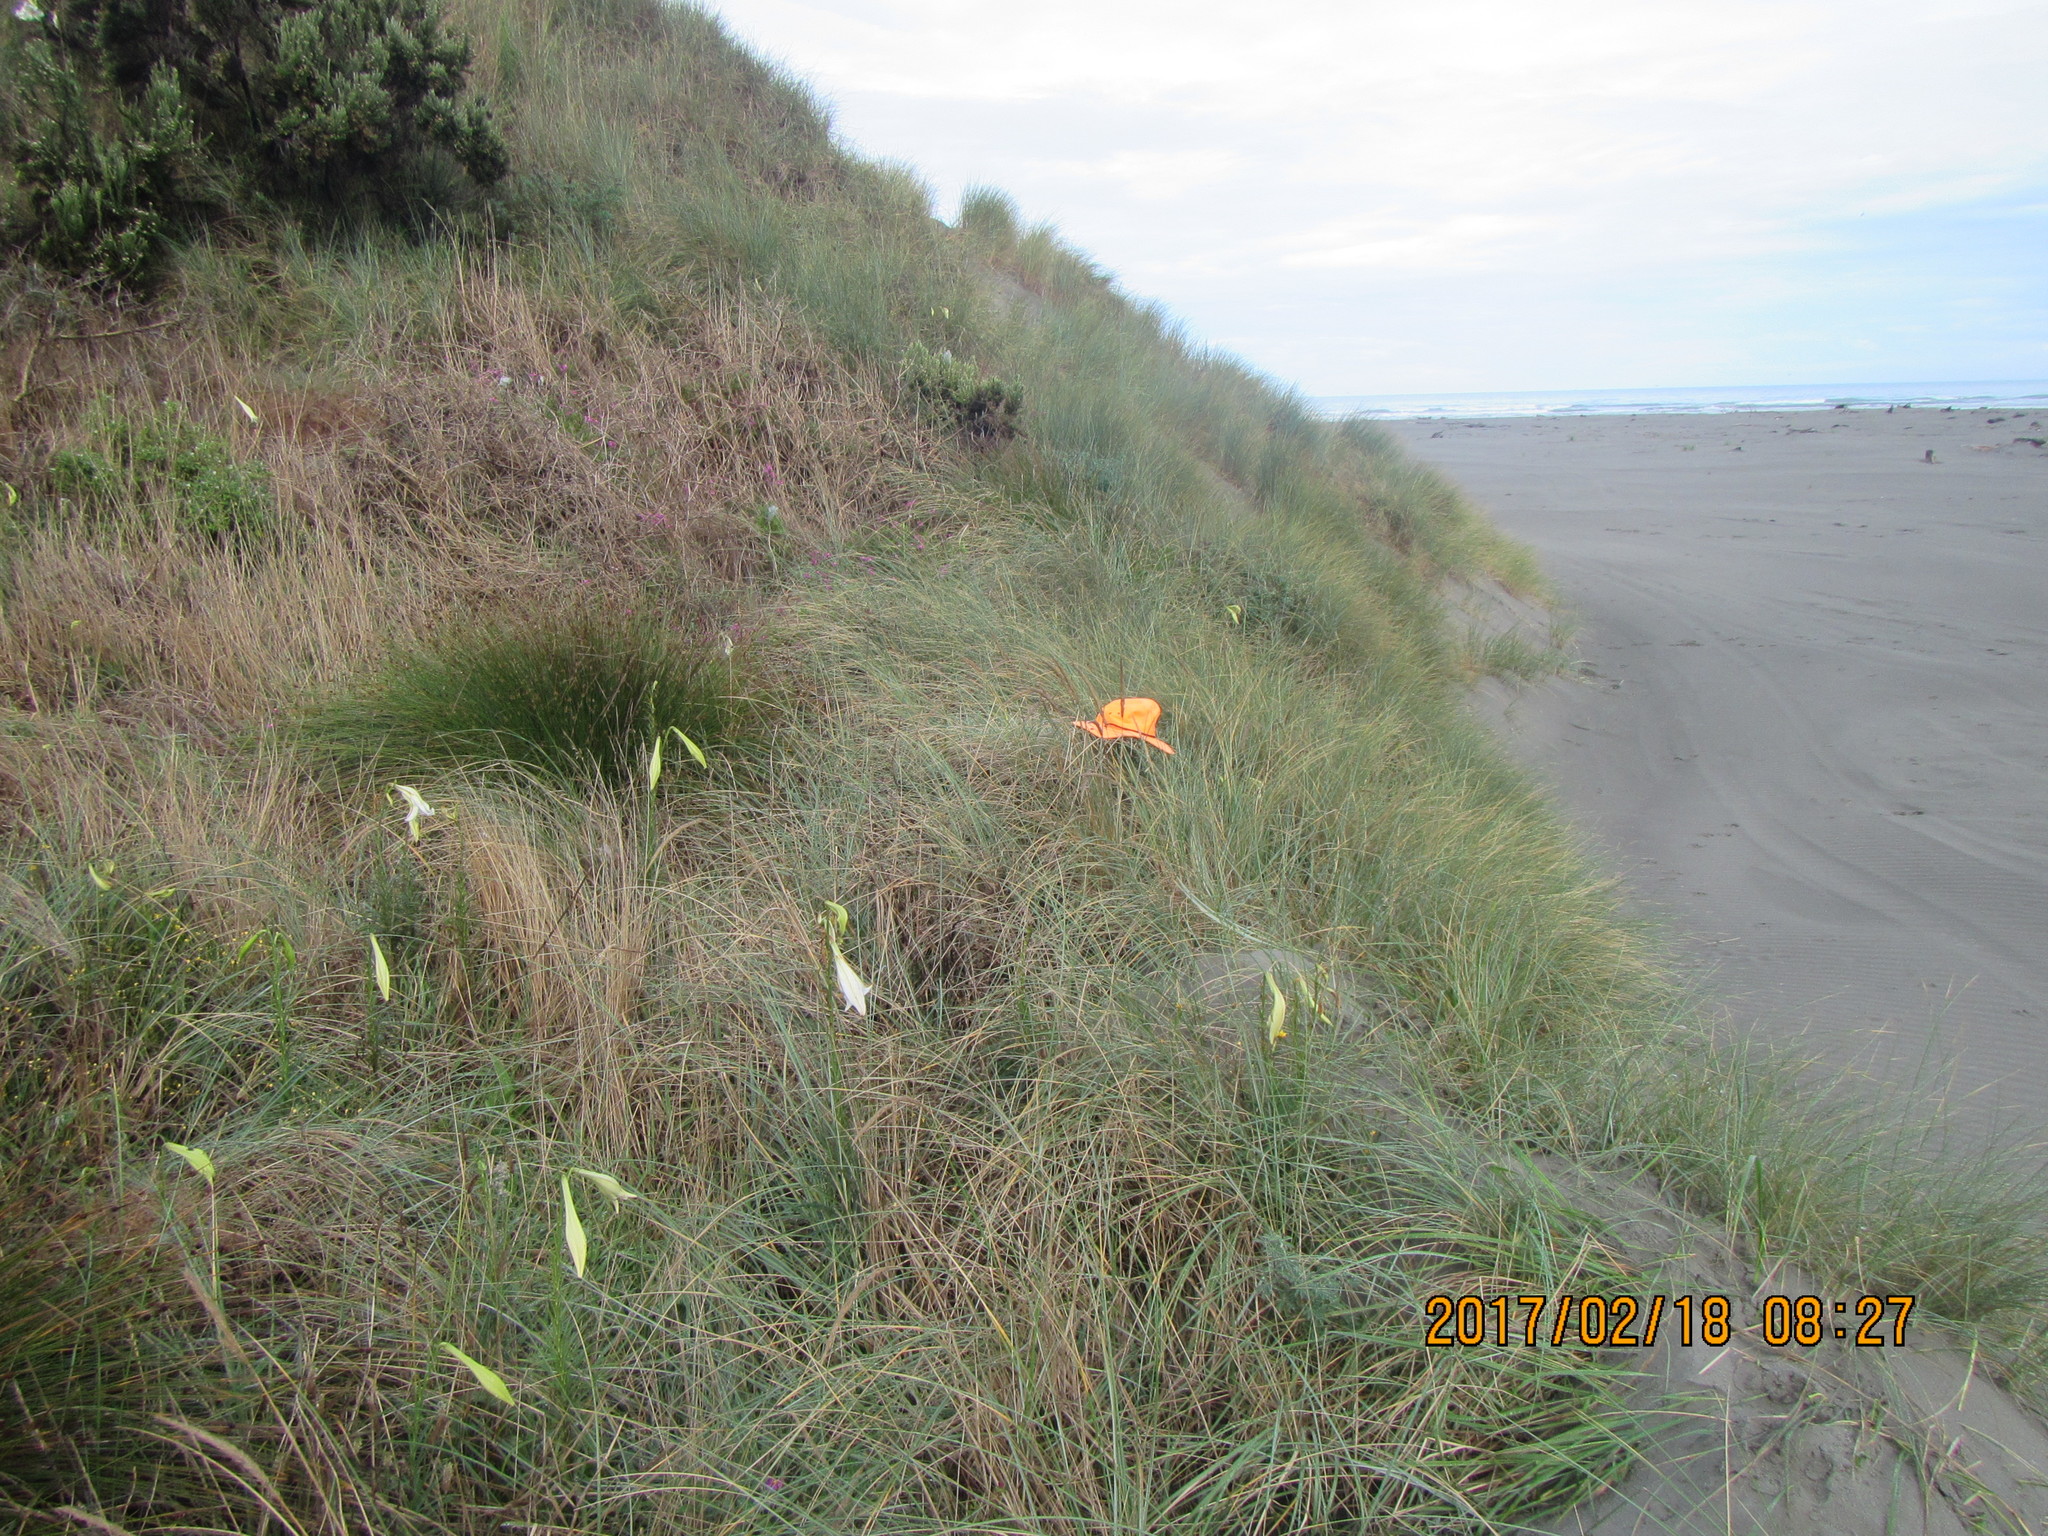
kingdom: Plantae
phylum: Tracheophyta
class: Magnoliopsida
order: Malvales
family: Thymelaeaceae
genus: Pimelea
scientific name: Pimelea villosa
